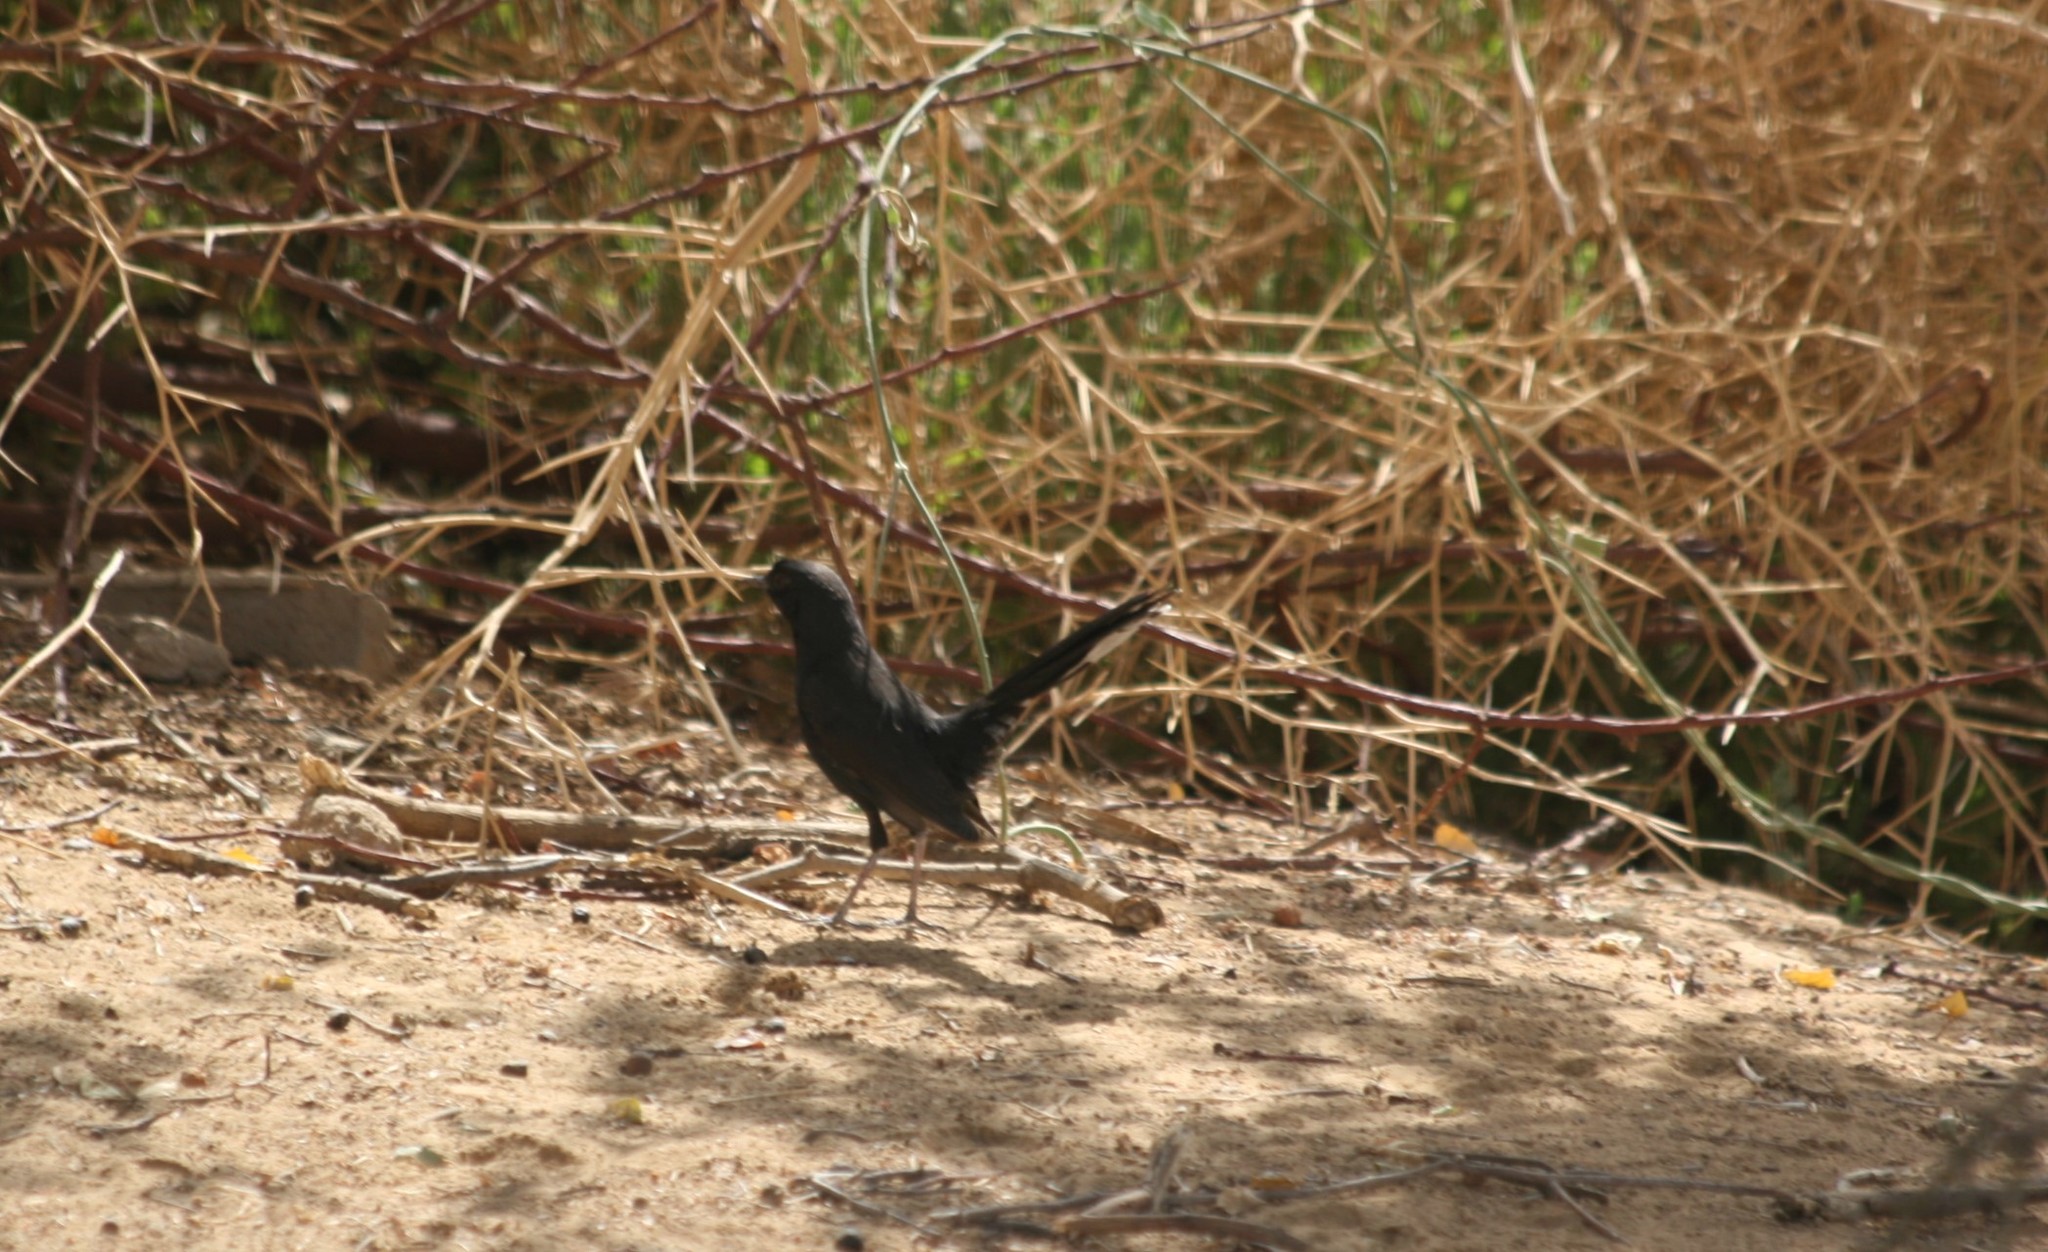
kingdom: Animalia
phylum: Chordata
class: Aves
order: Passeriformes
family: Muscicapidae
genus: Cercotrichas
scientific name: Cercotrichas podobe
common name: Black scrub robin
